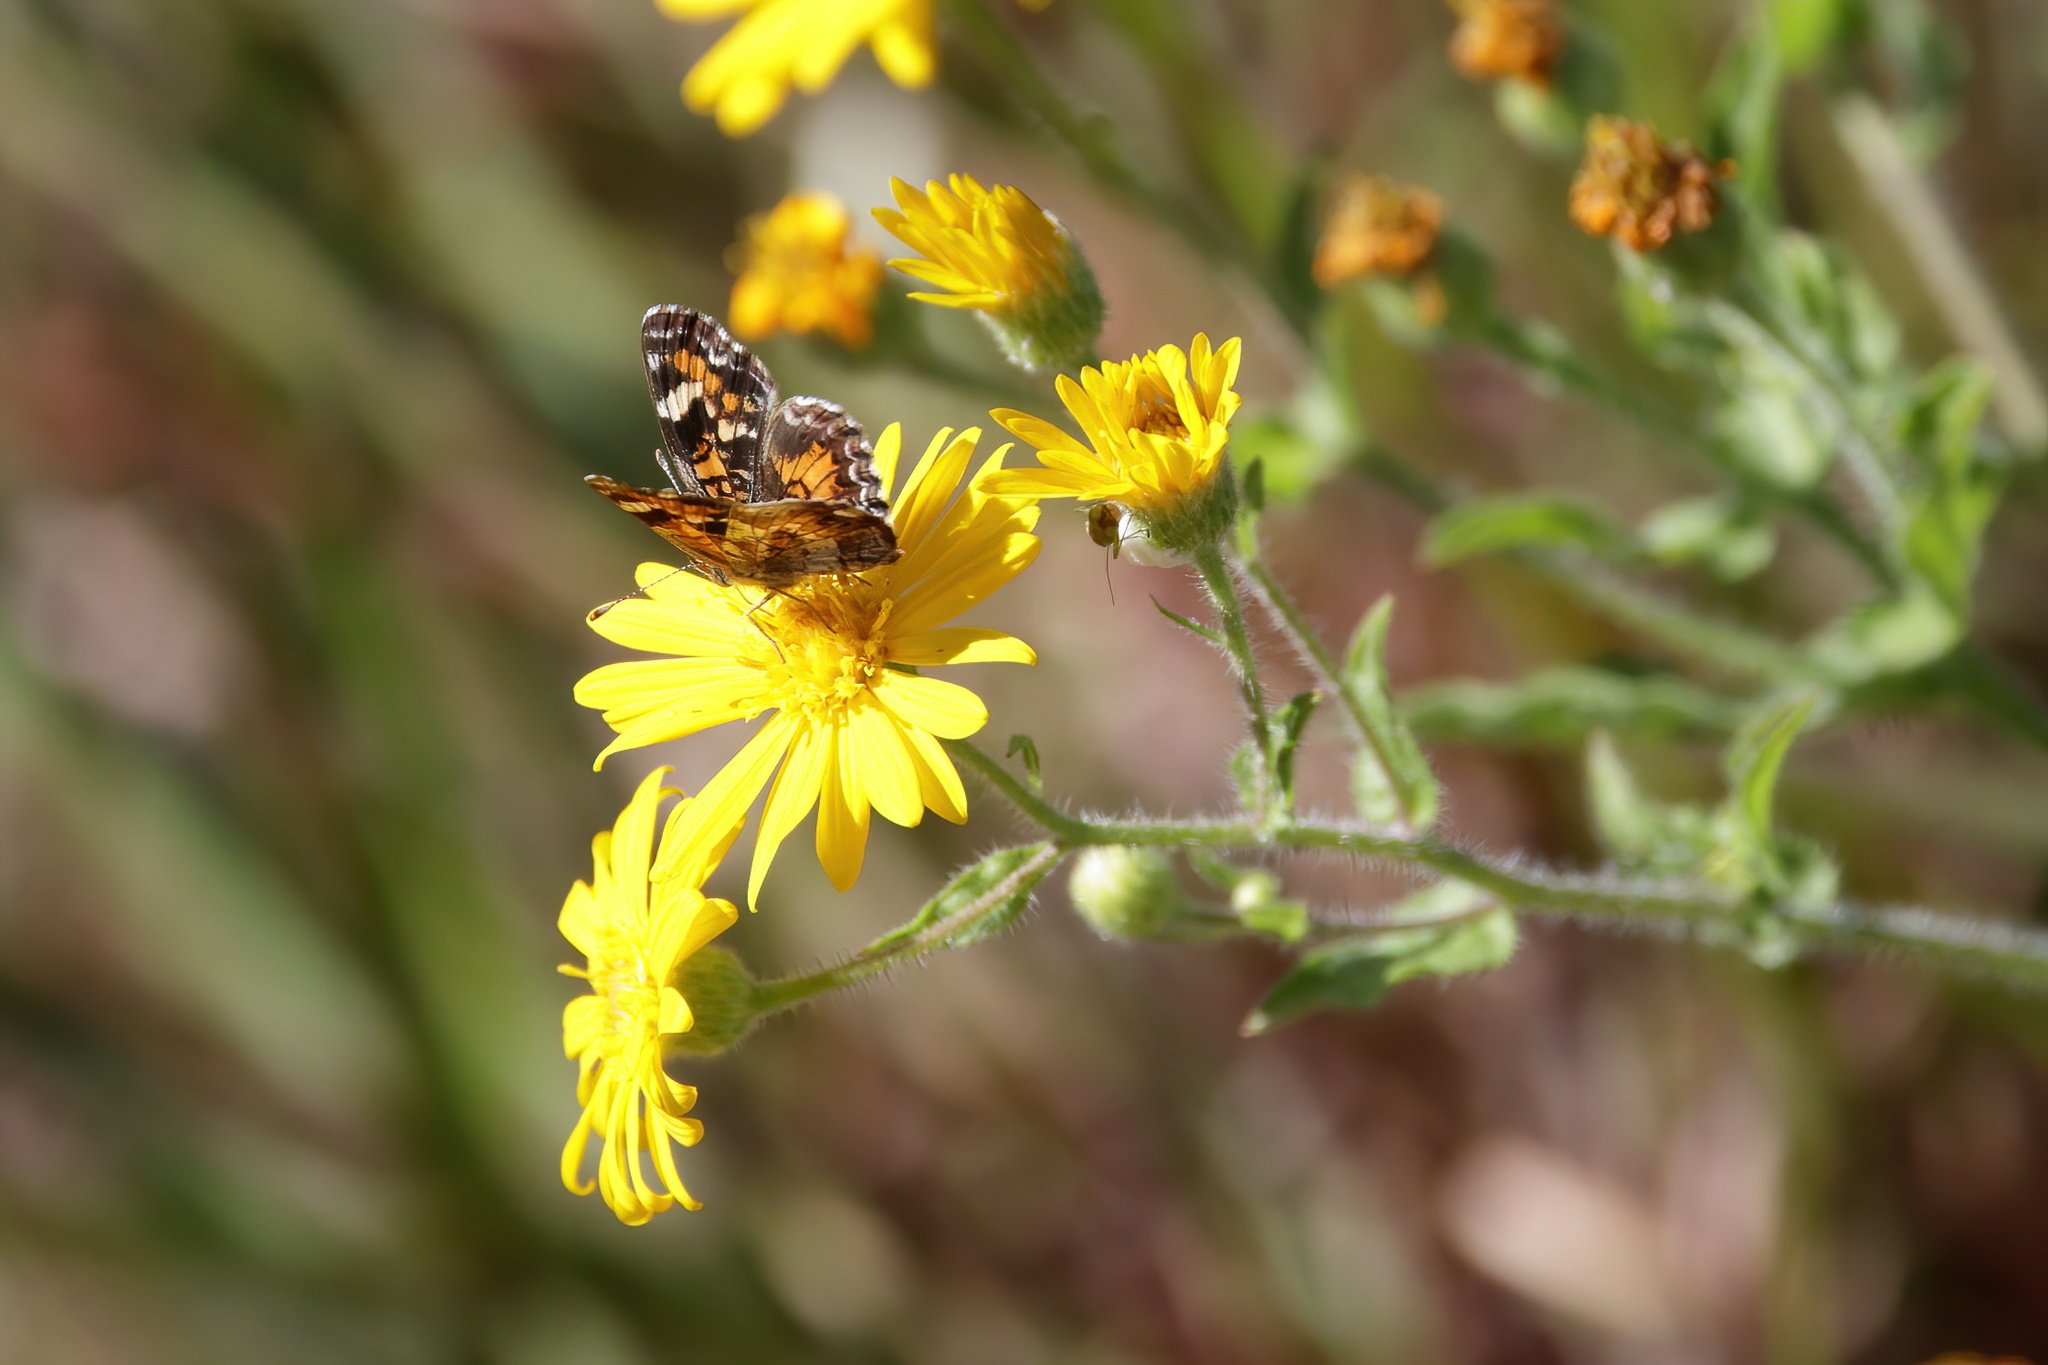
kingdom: Animalia
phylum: Arthropoda
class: Insecta
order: Lepidoptera
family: Nymphalidae
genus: Phyciodes
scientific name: Phyciodes phaon
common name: Phaon crescent
